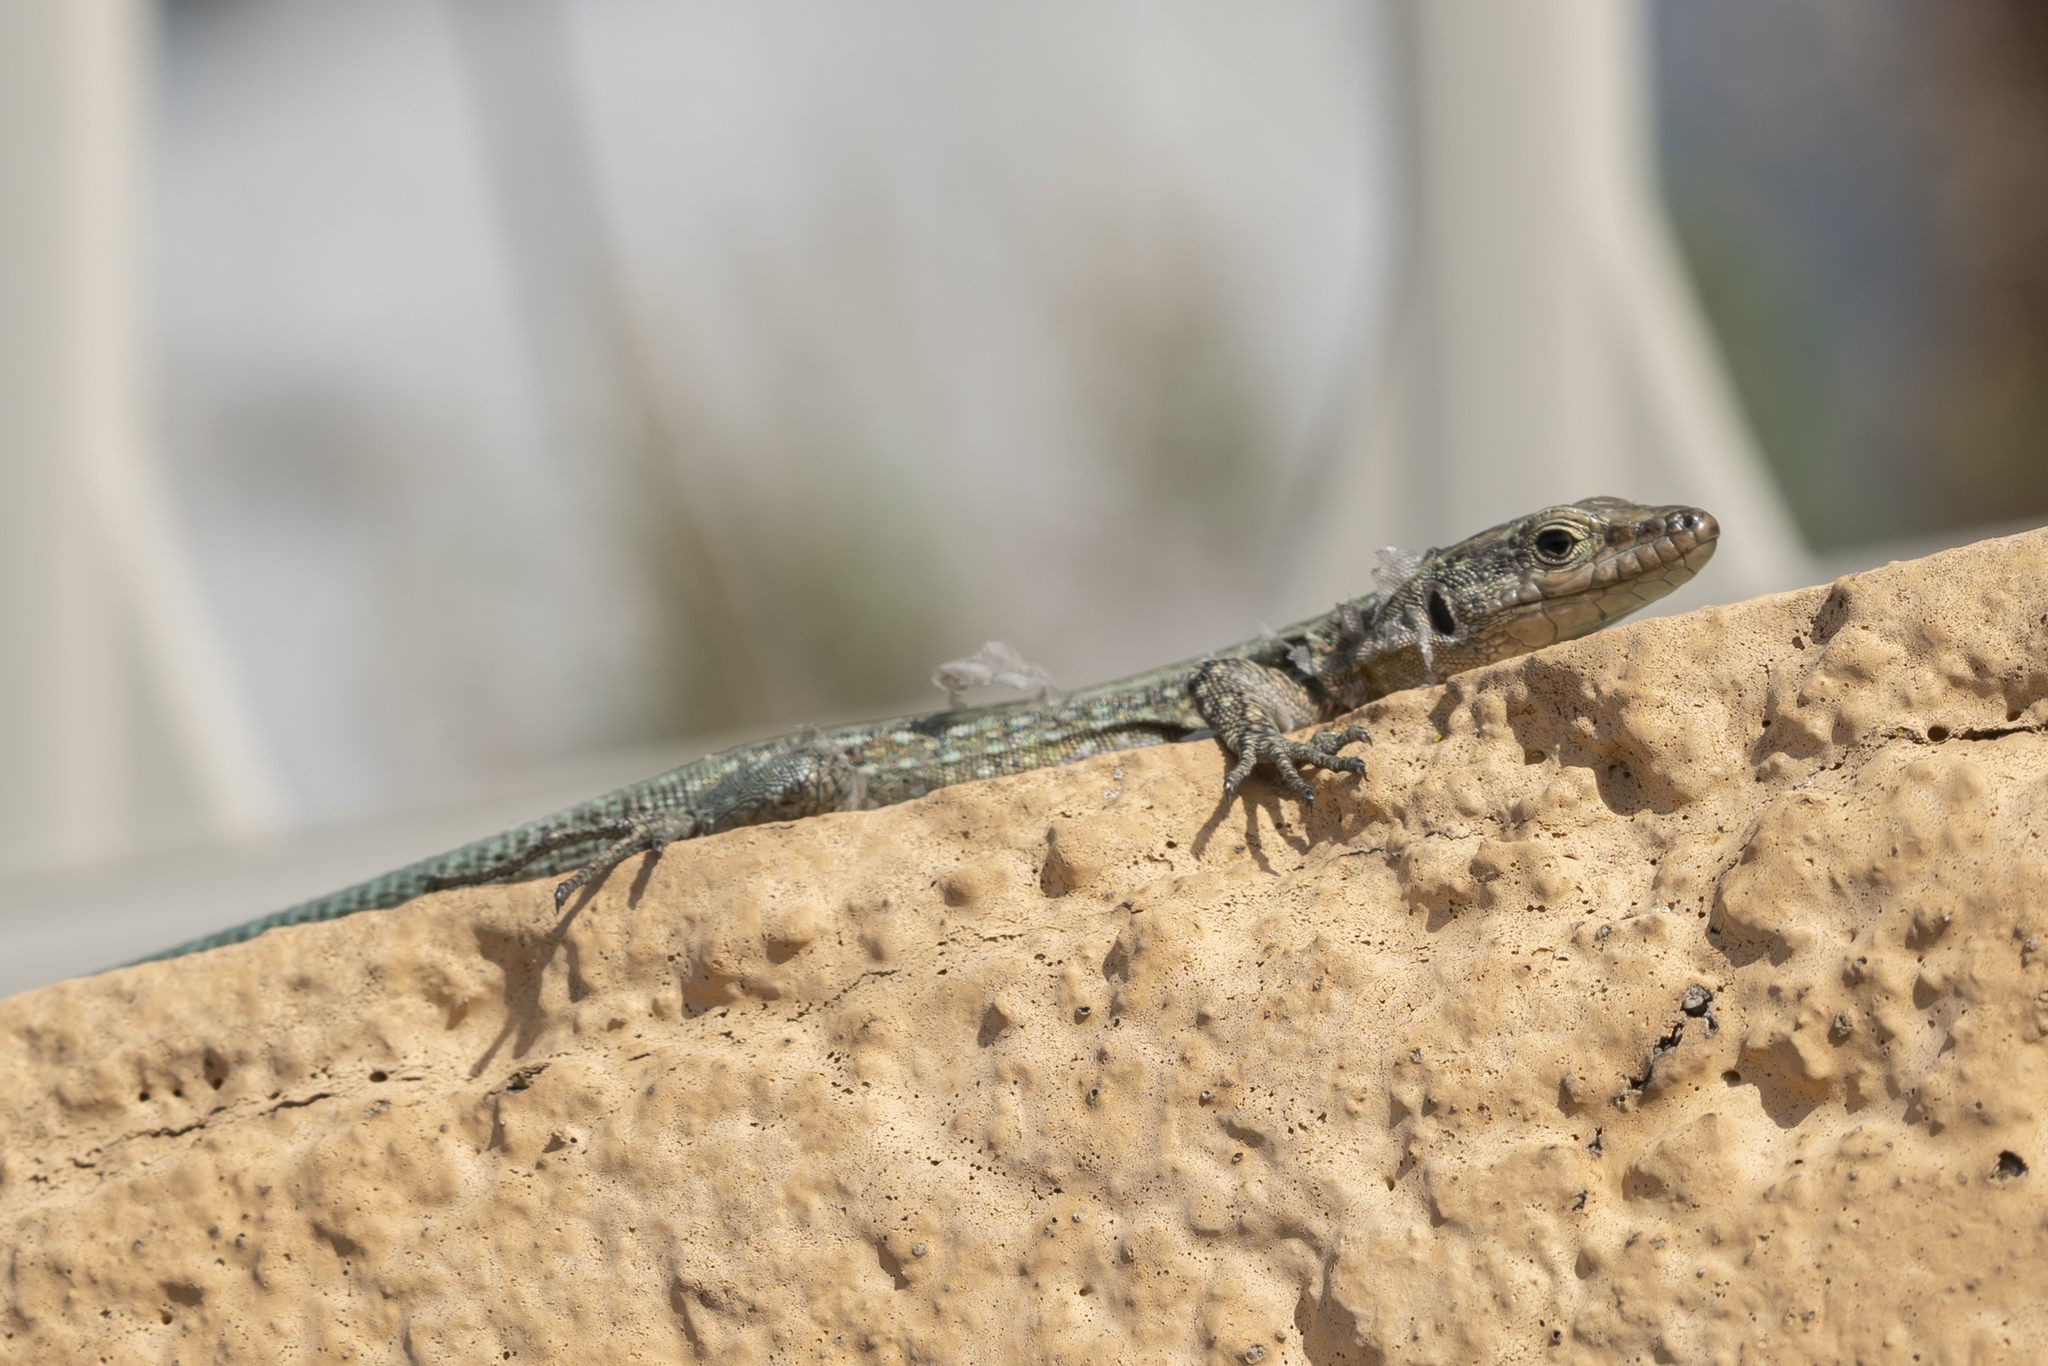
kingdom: Animalia
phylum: Chordata
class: Squamata
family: Lacertidae
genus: Anatololacerta
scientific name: Anatololacerta pelasgiana
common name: Pelasgian rock lizard
